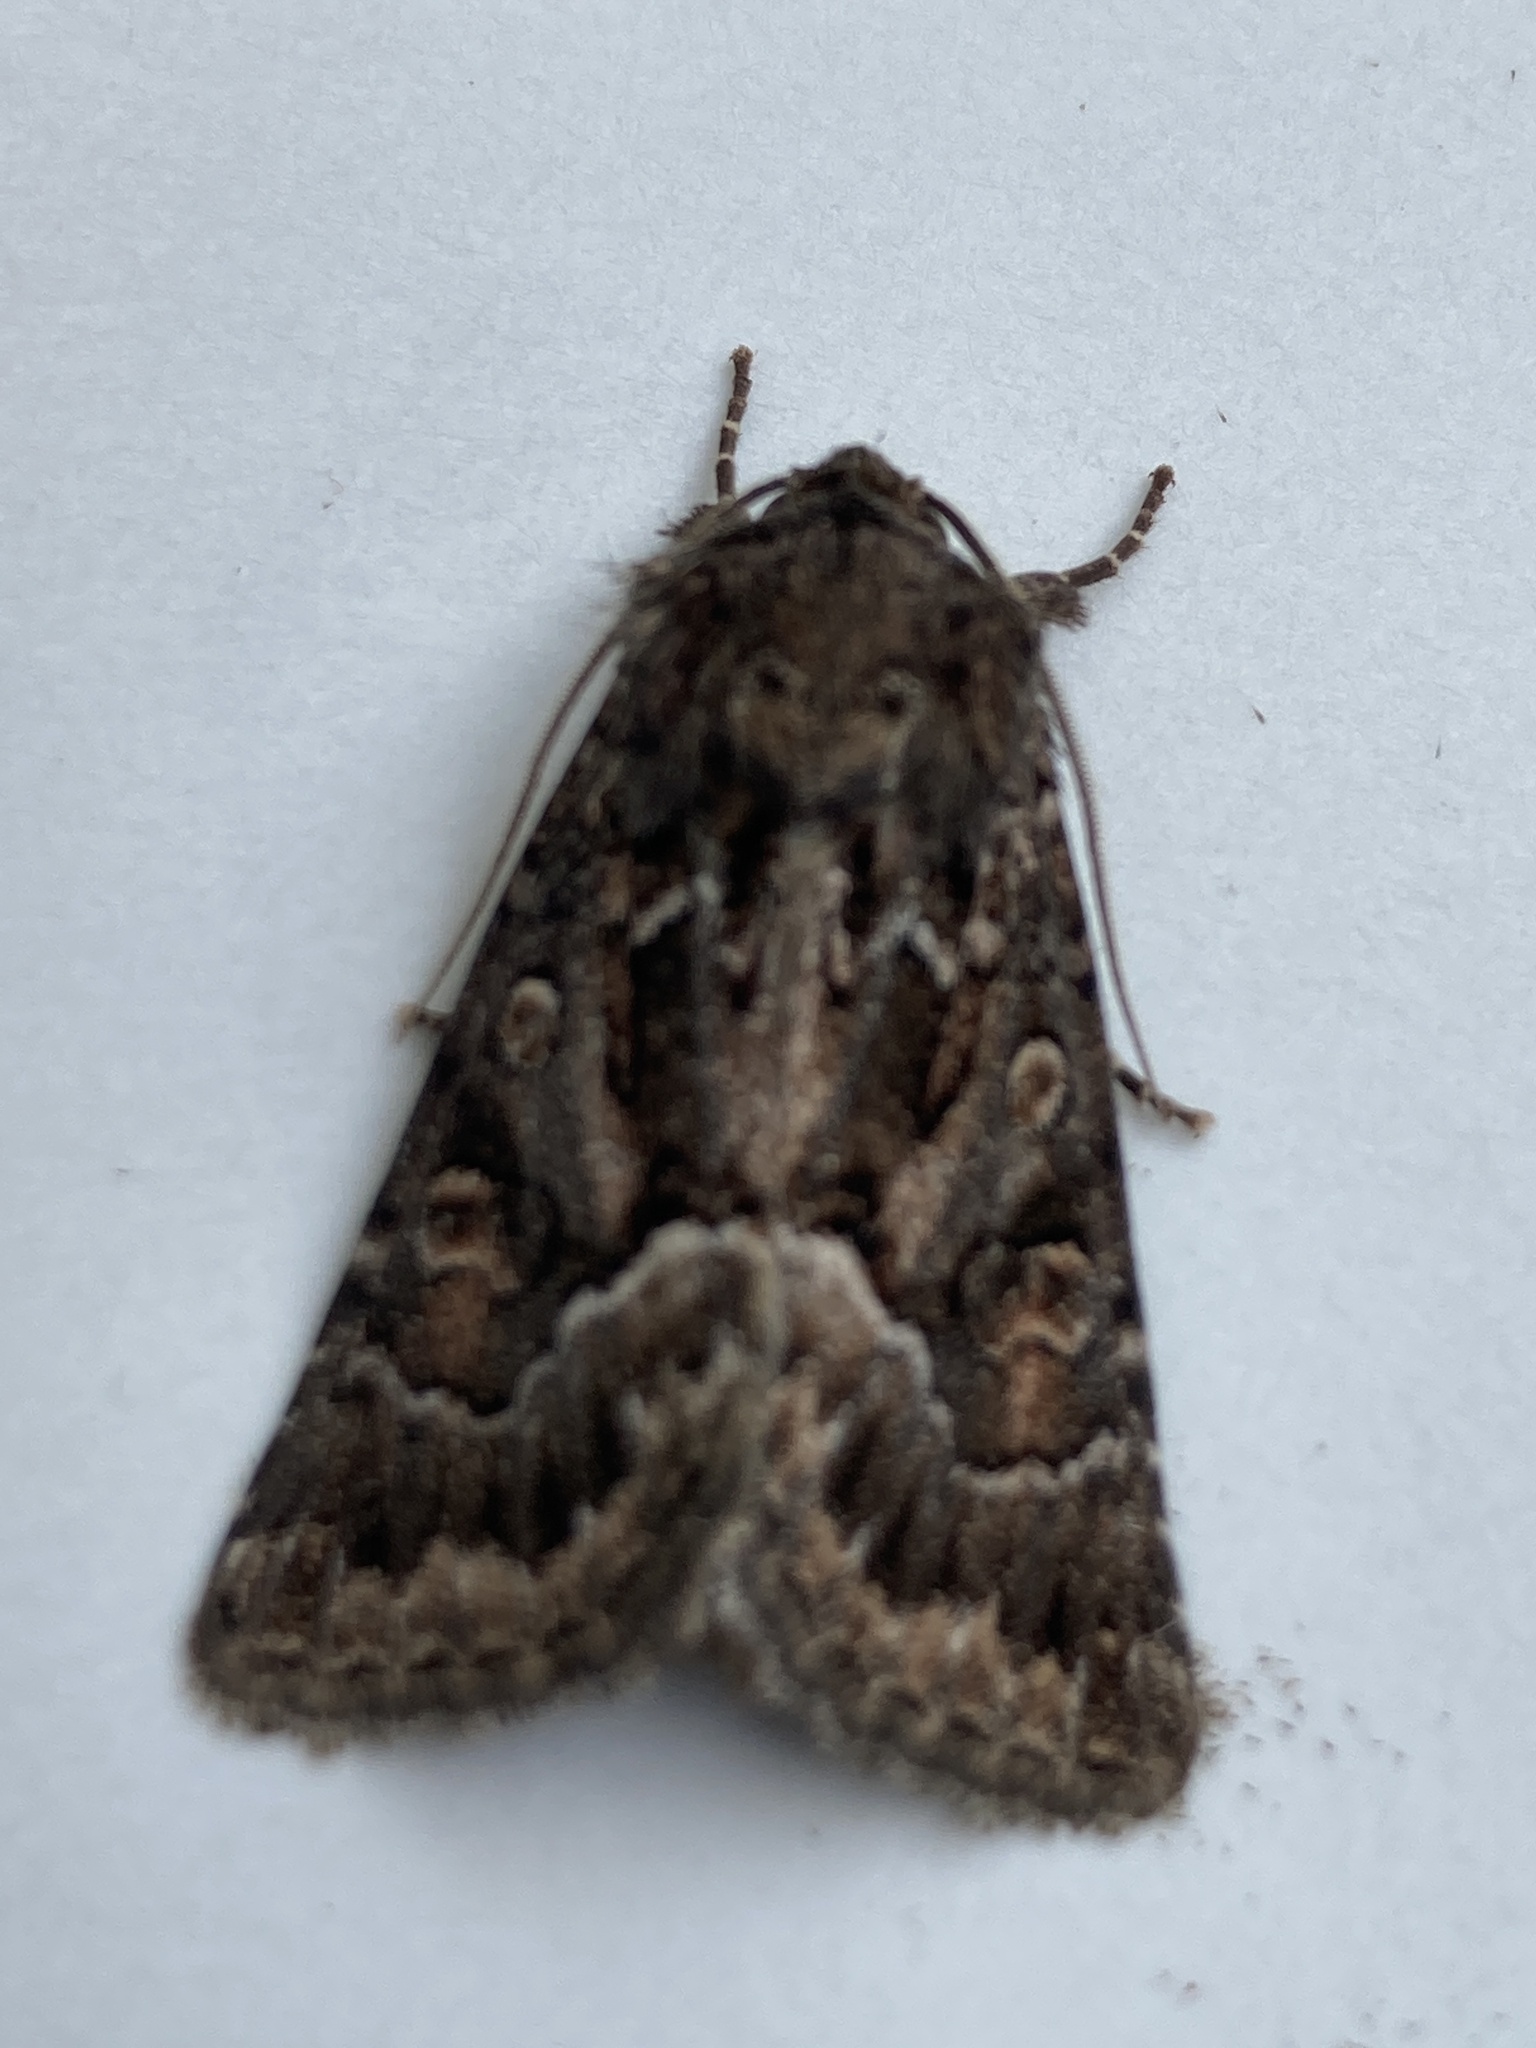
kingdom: Animalia
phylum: Arthropoda
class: Insecta
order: Lepidoptera
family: Noctuidae
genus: Thalpophila
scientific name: Thalpophila matura
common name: Straw underwing
